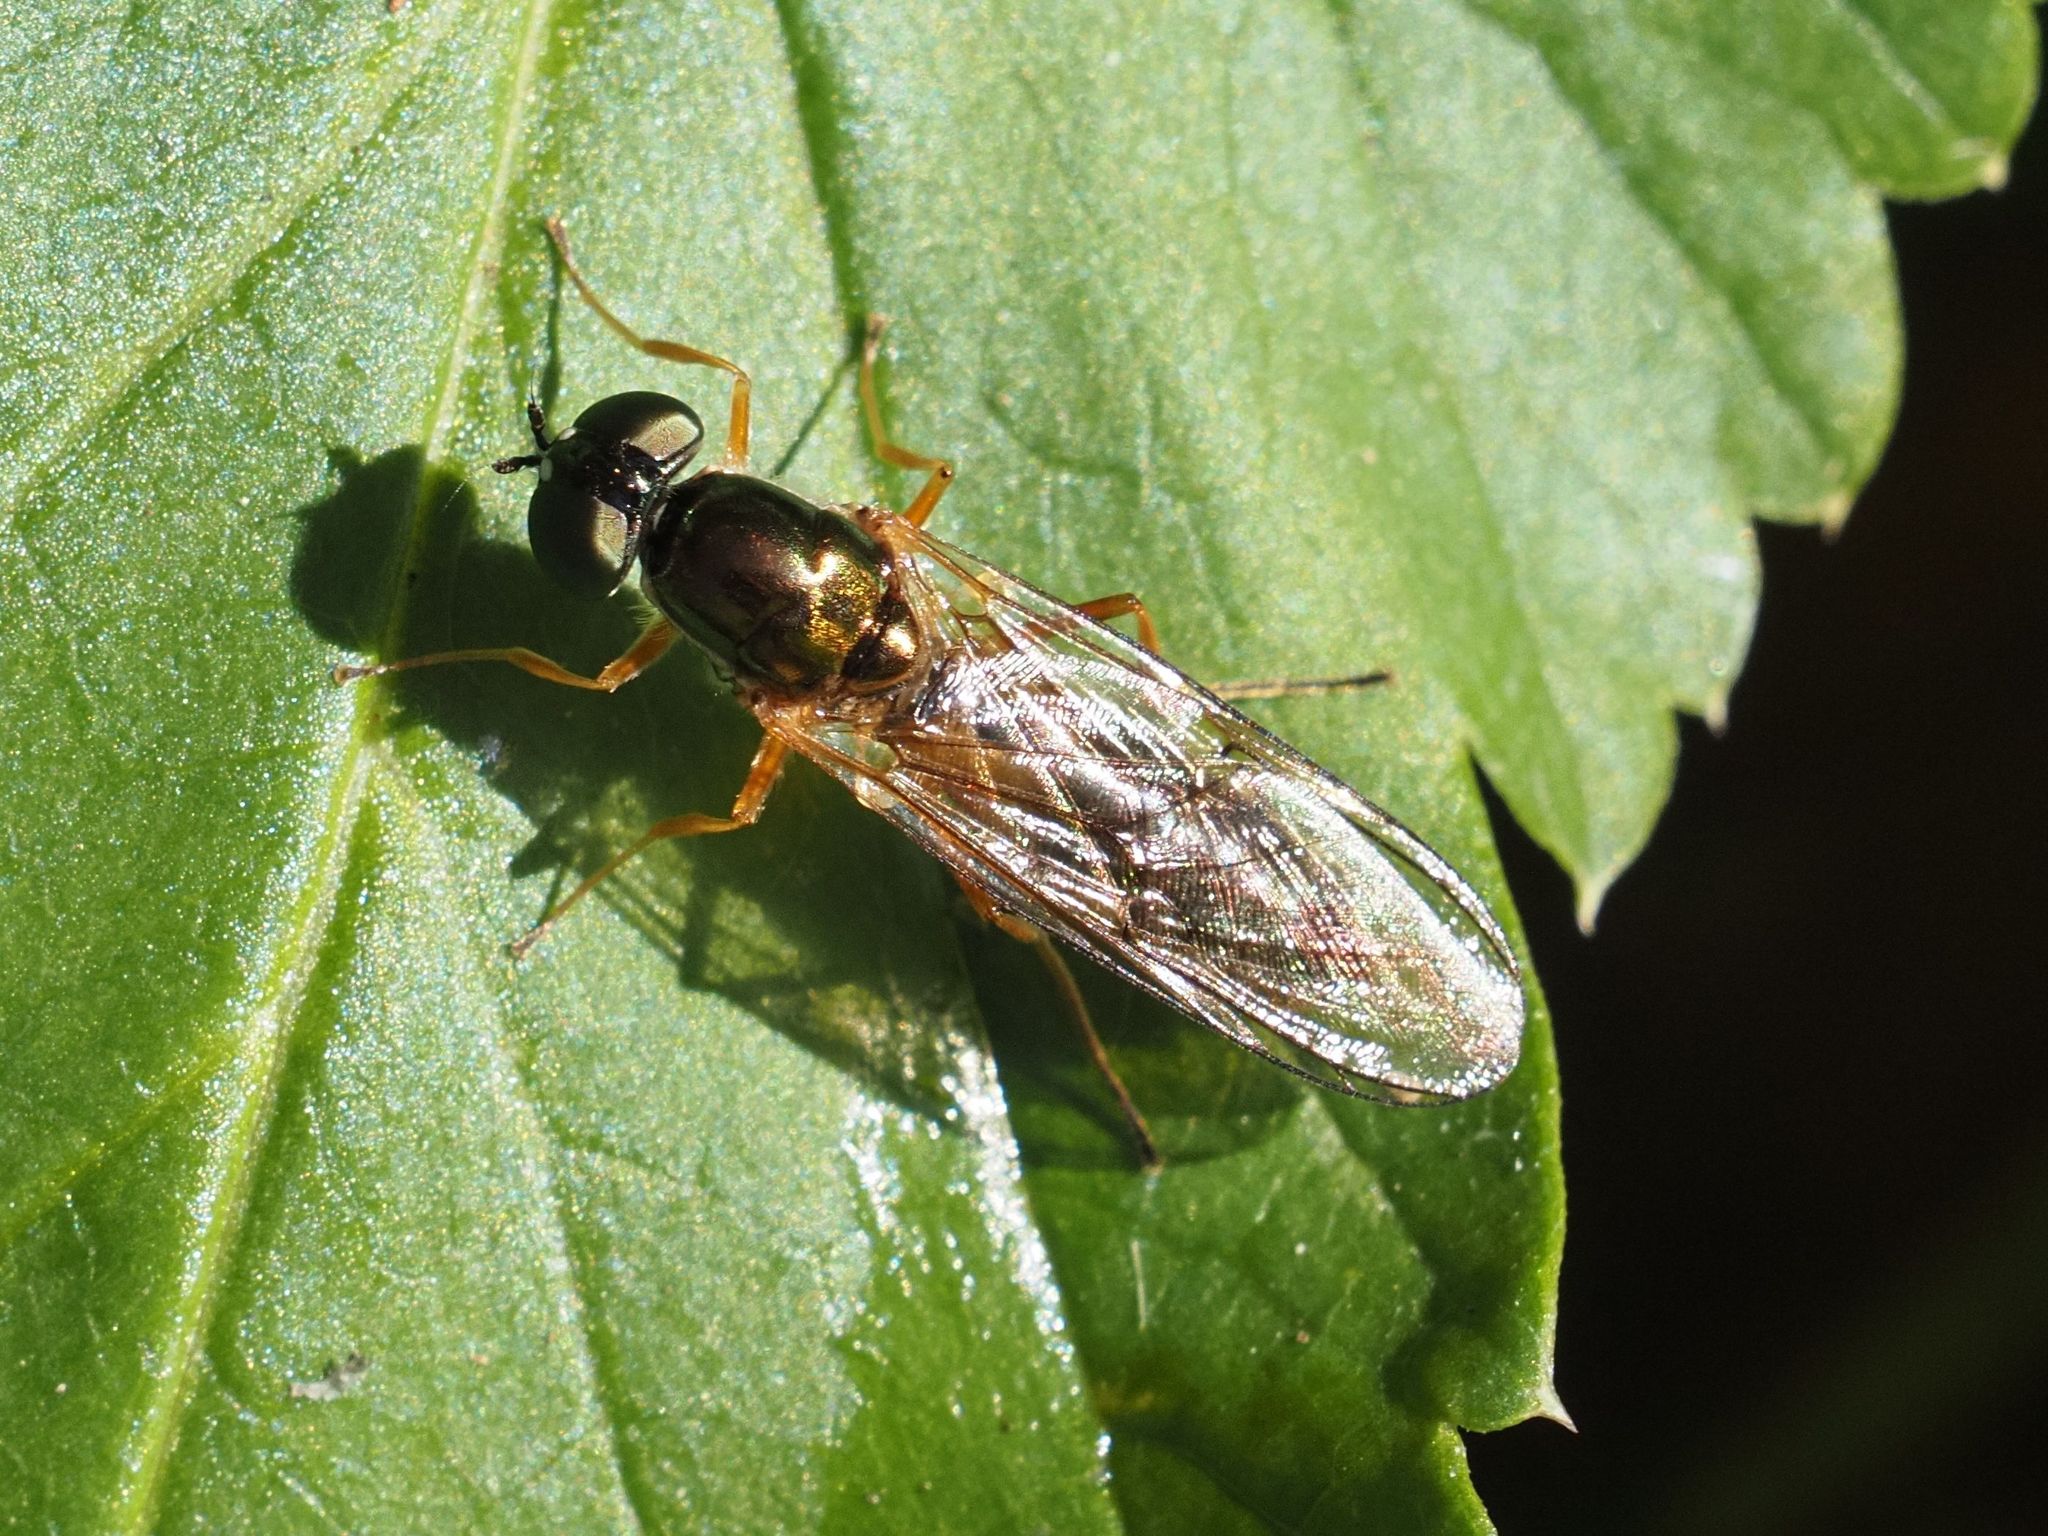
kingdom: Animalia
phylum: Arthropoda
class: Insecta
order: Diptera
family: Stratiomyidae
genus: Sargus
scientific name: Sargus bipunctatus
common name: Twin-spot centurion
